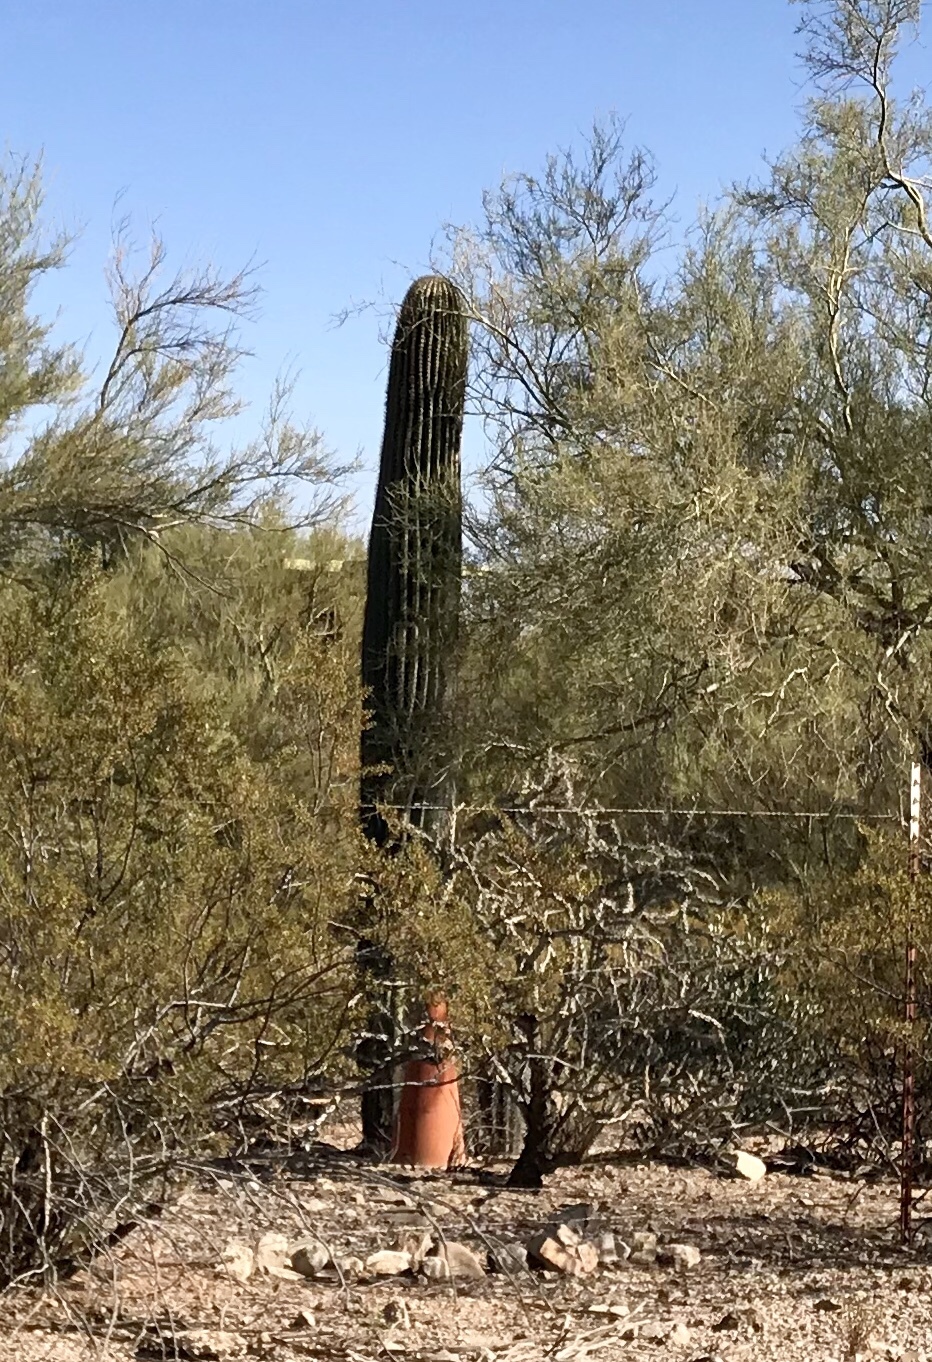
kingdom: Plantae
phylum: Tracheophyta
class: Magnoliopsida
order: Caryophyllales
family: Cactaceae
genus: Carnegiea
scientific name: Carnegiea gigantea
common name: Saguaro
